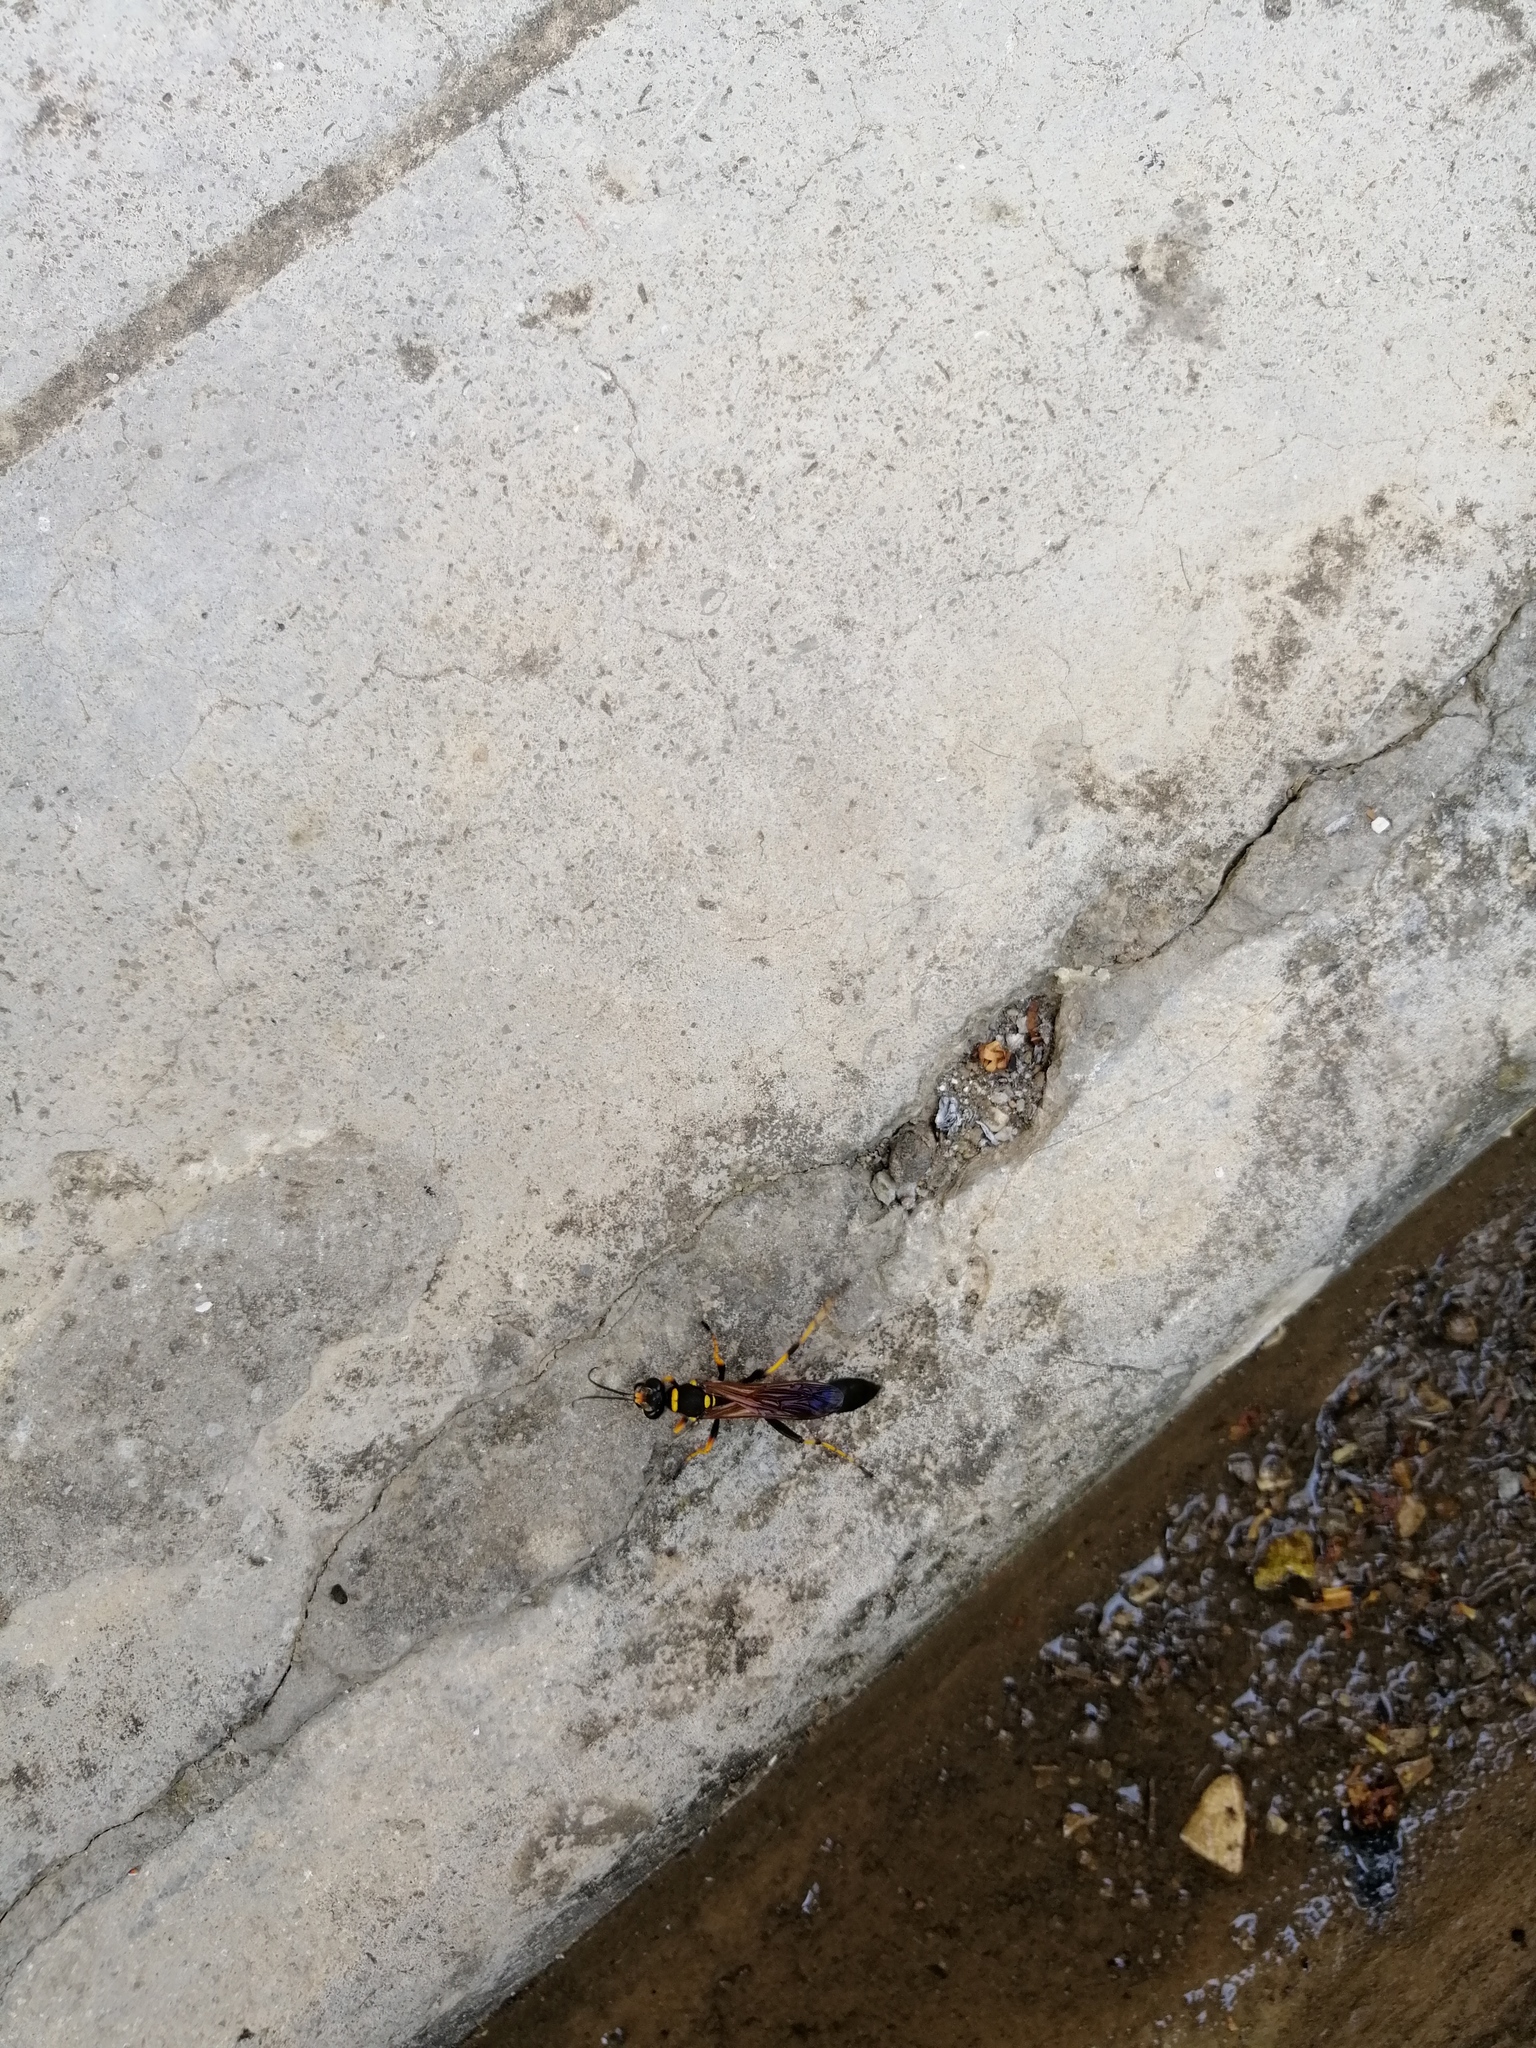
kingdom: Animalia
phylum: Arthropoda
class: Insecta
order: Hymenoptera
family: Sphecidae
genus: Sceliphron
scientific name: Sceliphron caementarium
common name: Mud dauber
